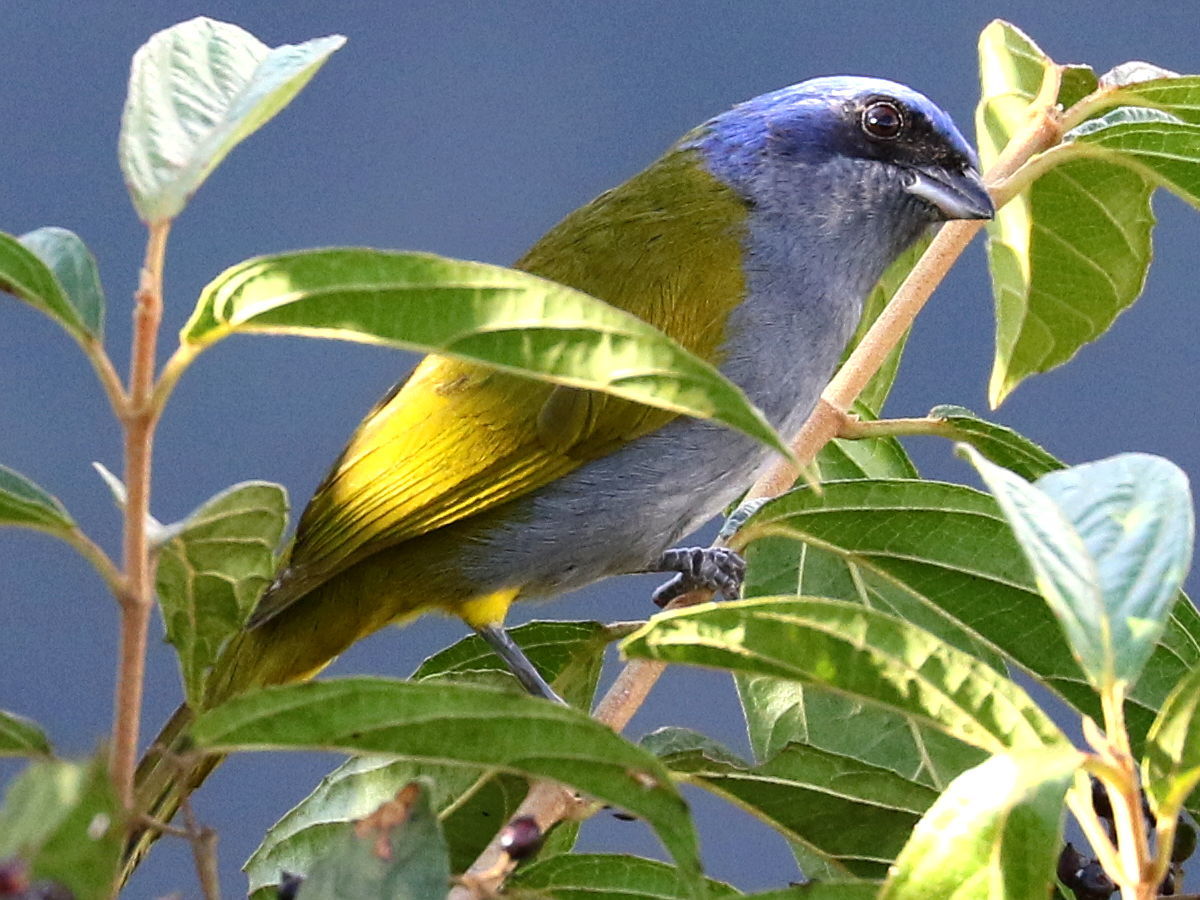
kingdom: Animalia
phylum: Chordata
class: Aves
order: Passeriformes
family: Thraupidae
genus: Sporathraupis
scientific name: Sporathraupis cyanocephala
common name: Blue-capped tanager
